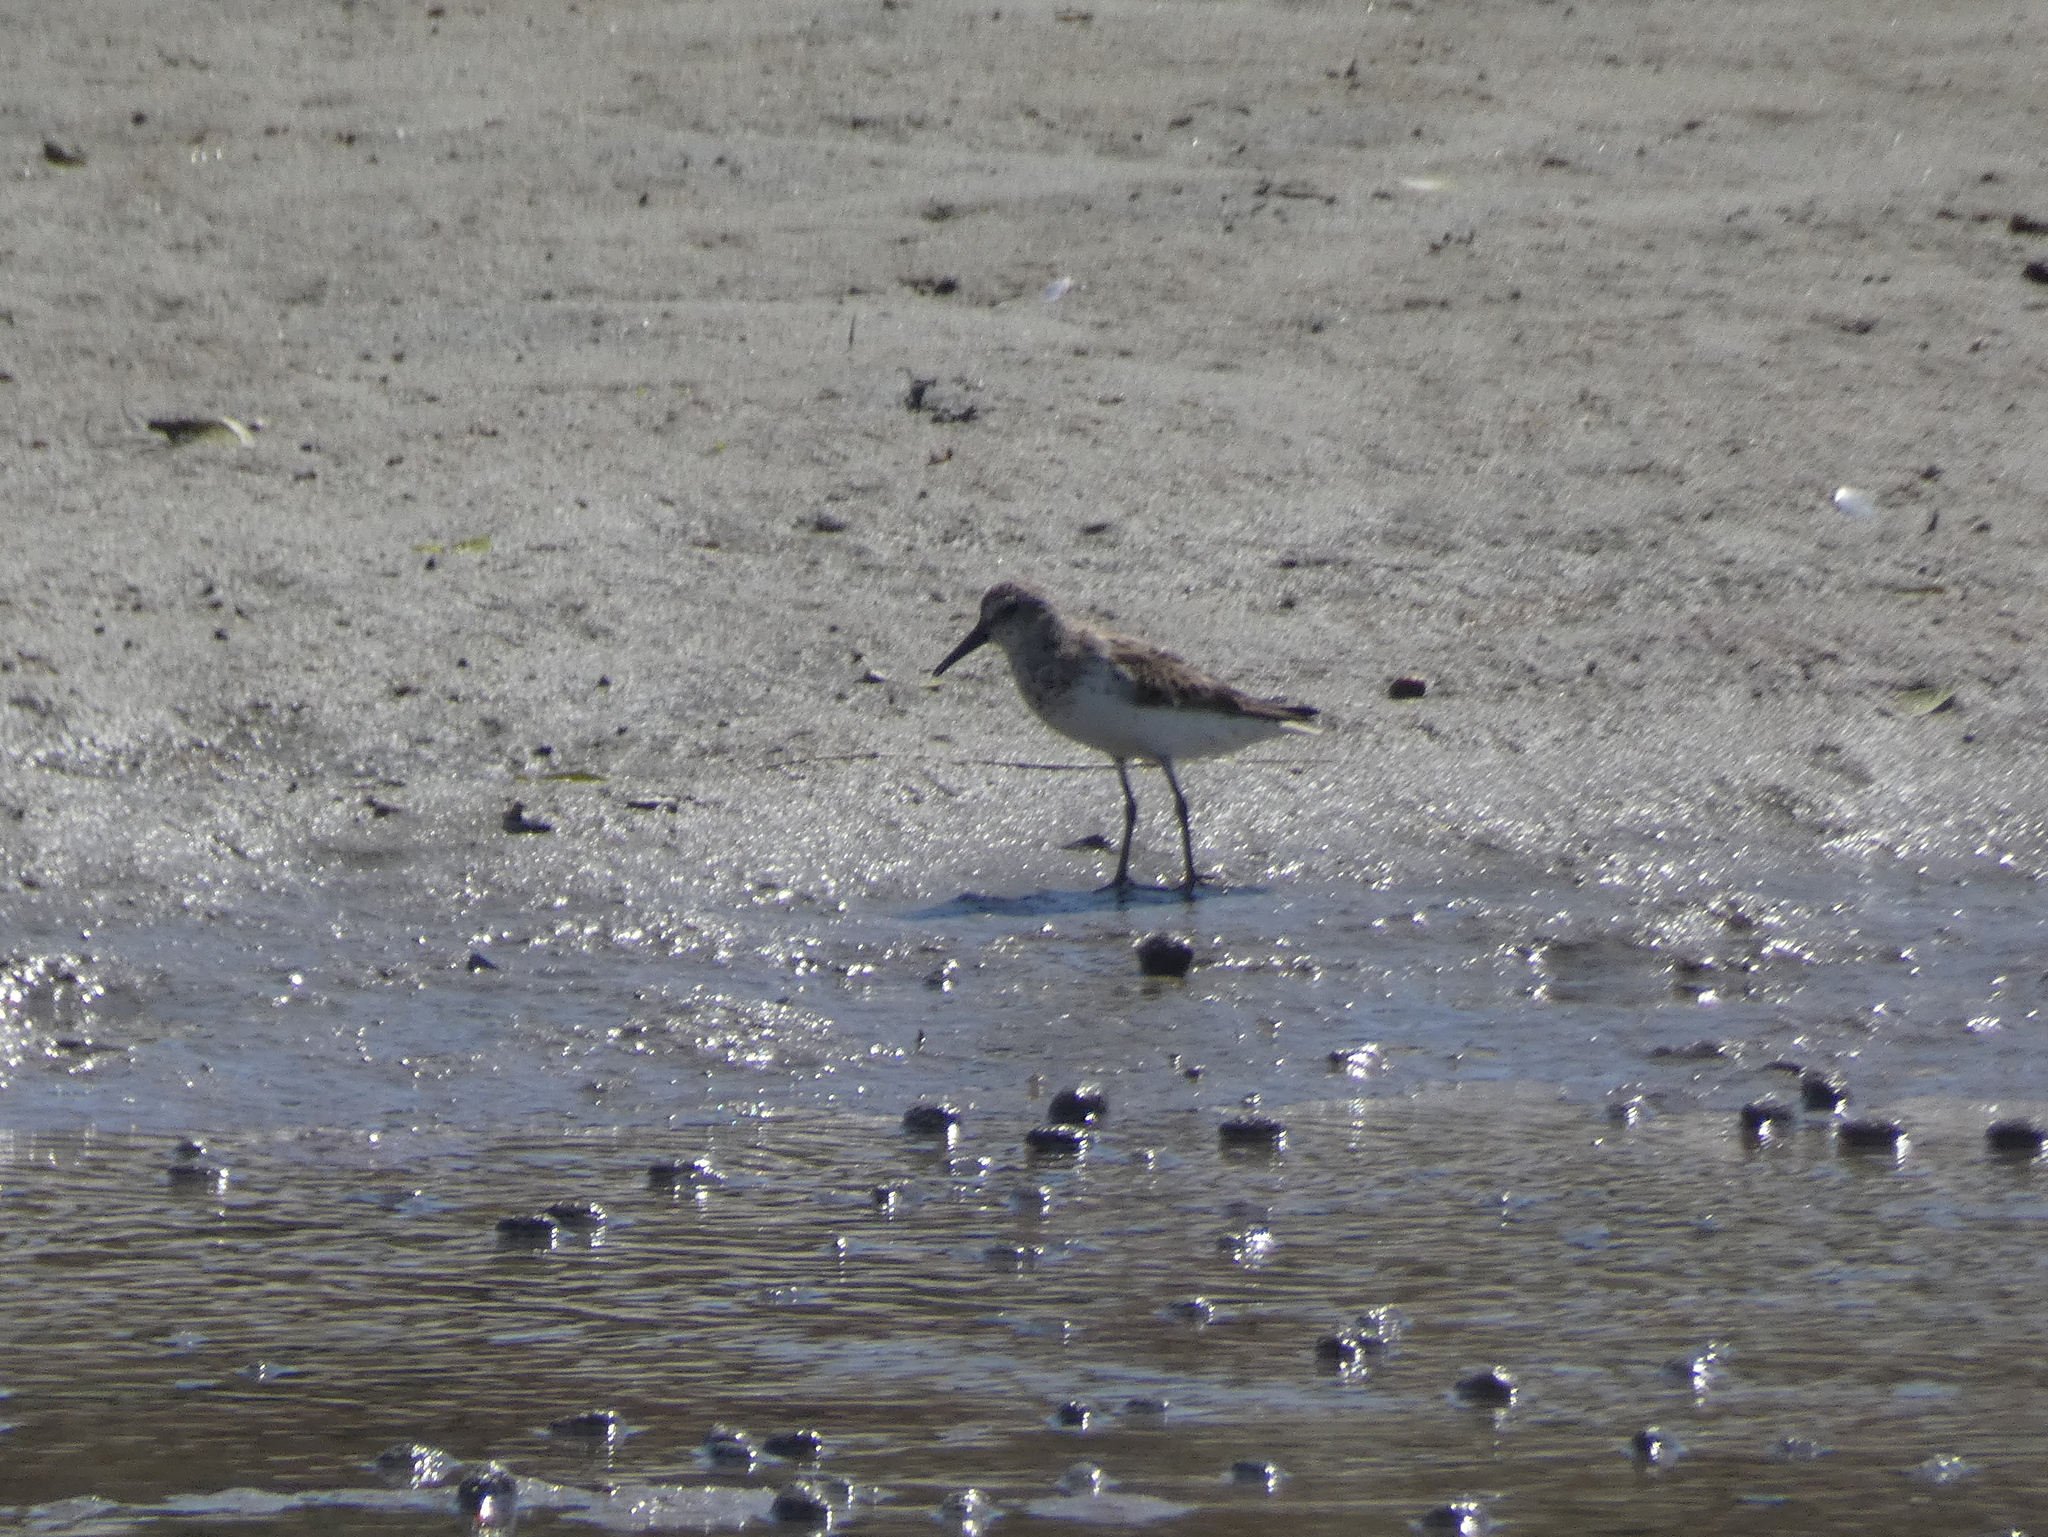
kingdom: Animalia
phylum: Chordata
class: Aves
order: Charadriiformes
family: Scolopacidae
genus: Calidris
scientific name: Calidris pusilla
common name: Semipalmated sandpiper
